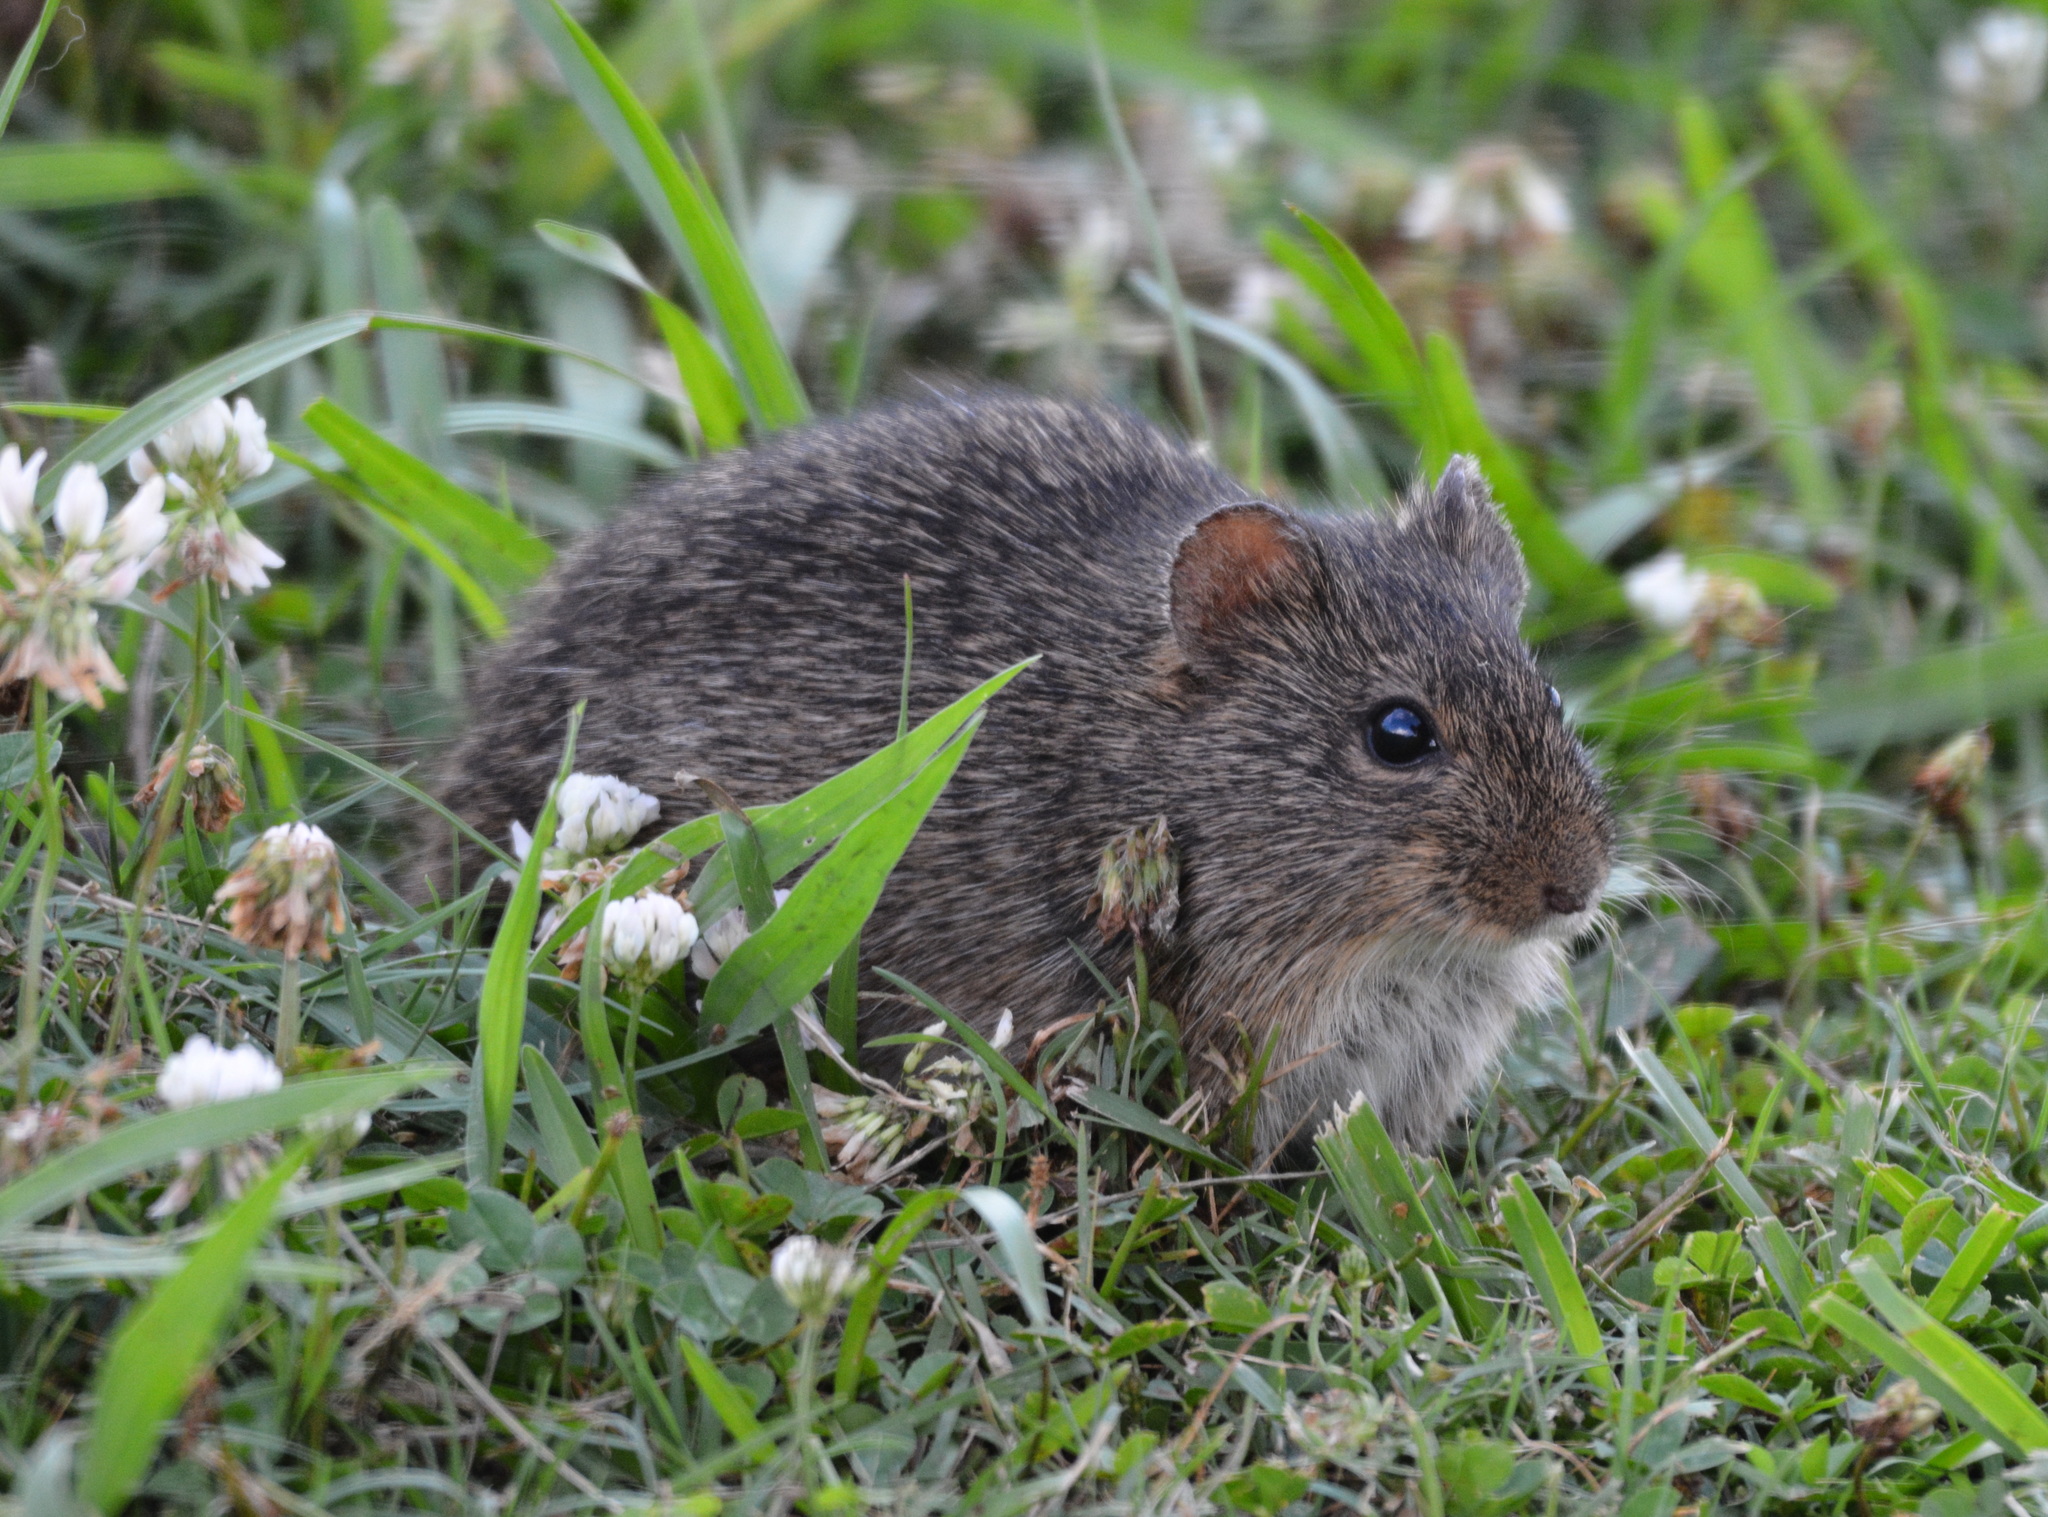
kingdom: Animalia
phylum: Chordata
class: Mammalia
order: Rodentia
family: Cricetidae
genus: Sigmodon
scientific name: Sigmodon hispidus
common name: Hispid cotton rat
